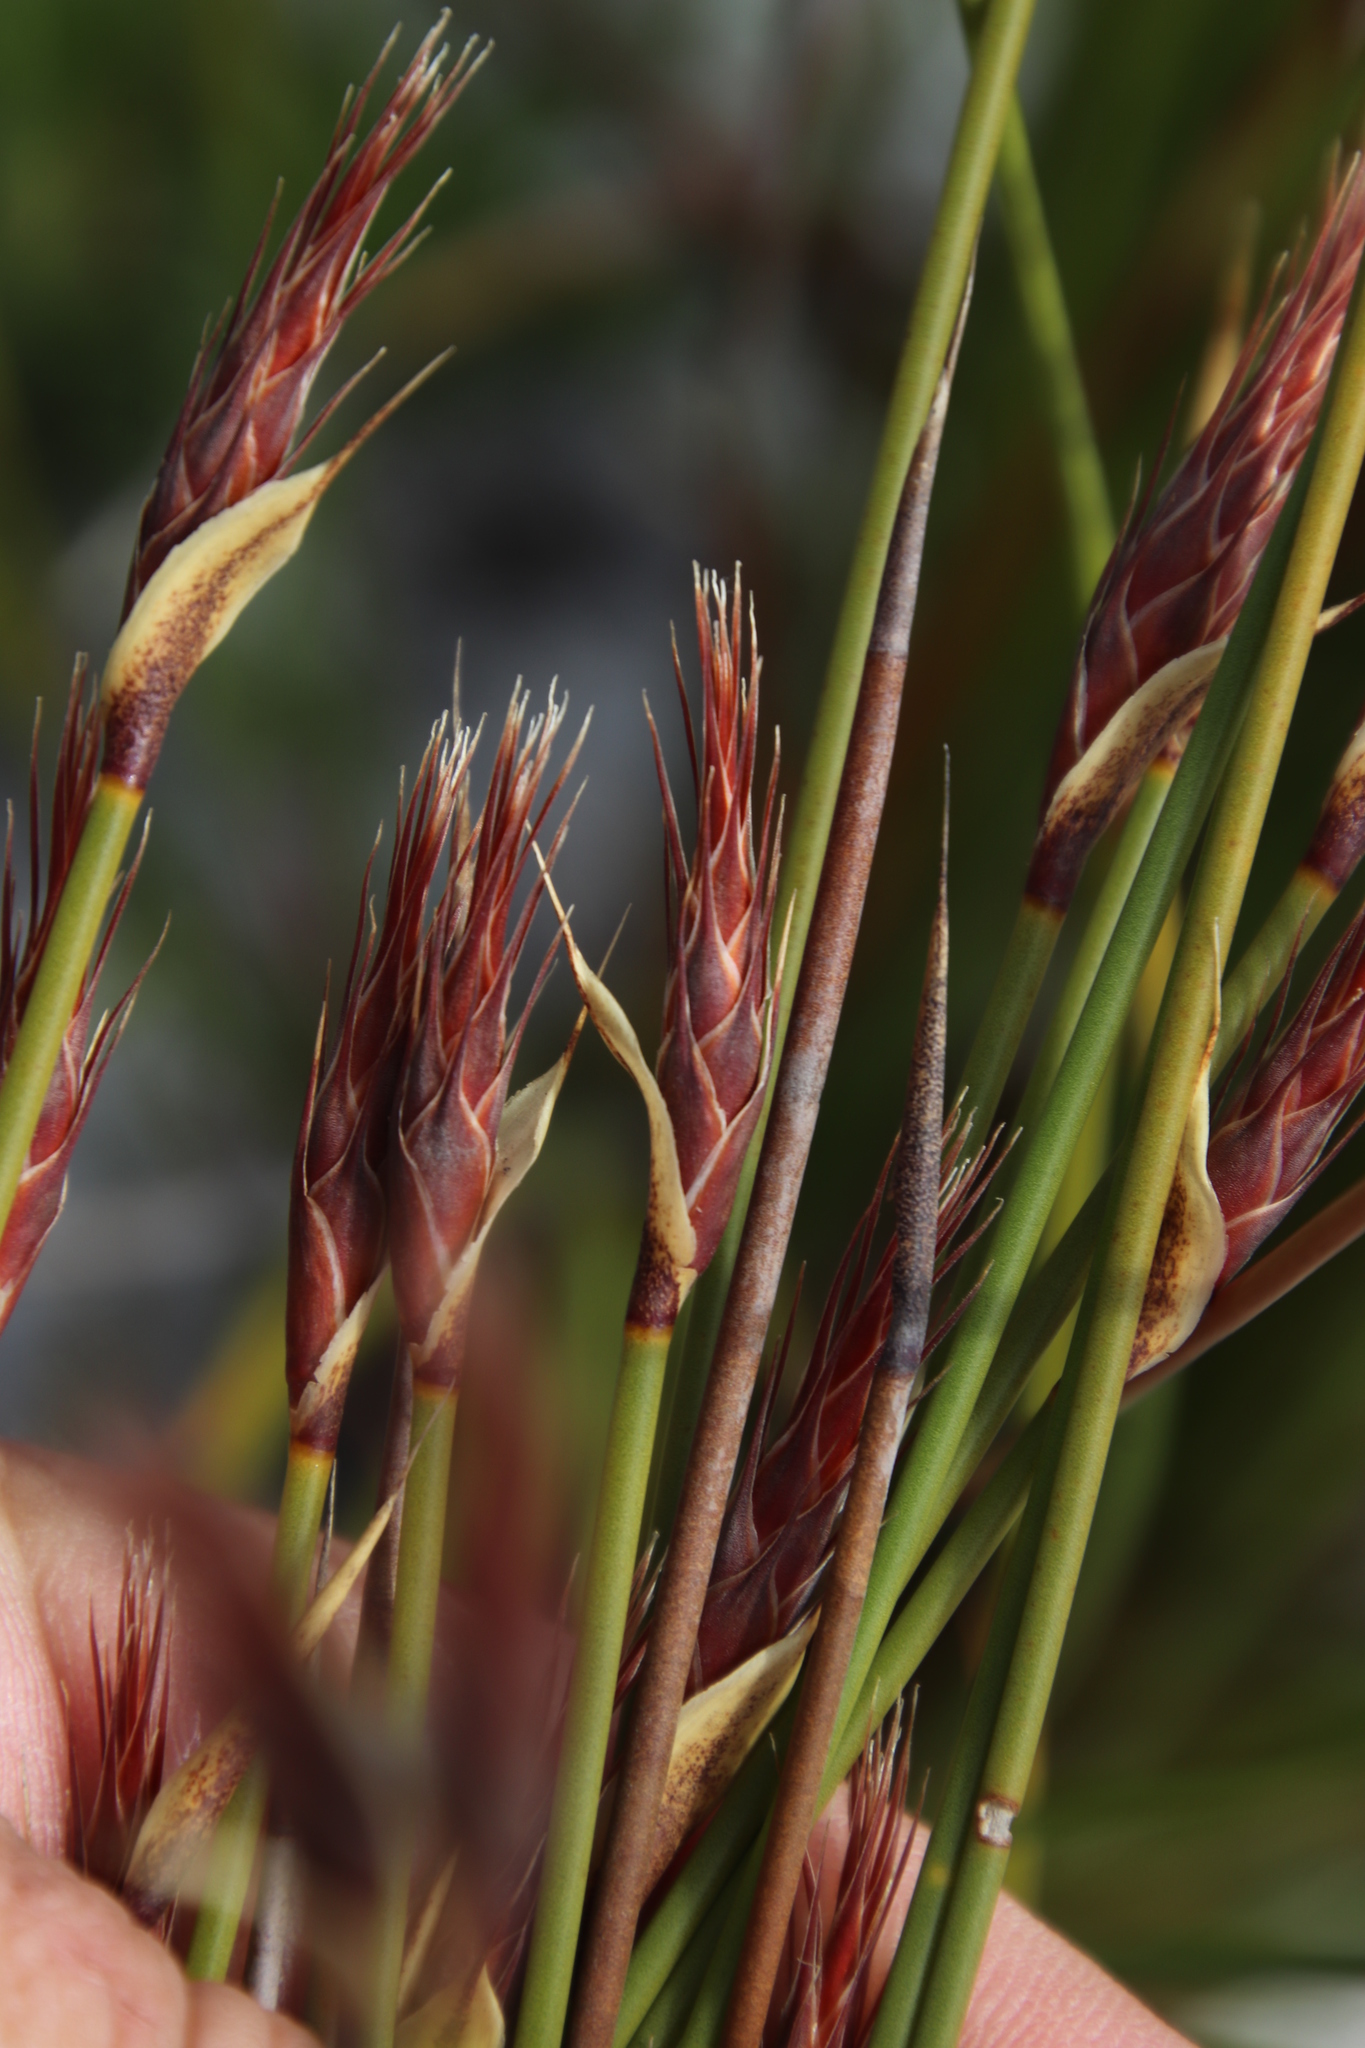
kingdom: Plantae
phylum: Tracheophyta
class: Liliopsida
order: Poales
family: Restionaceae
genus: Hypodiscus
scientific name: Hypodiscus alboaristatus
